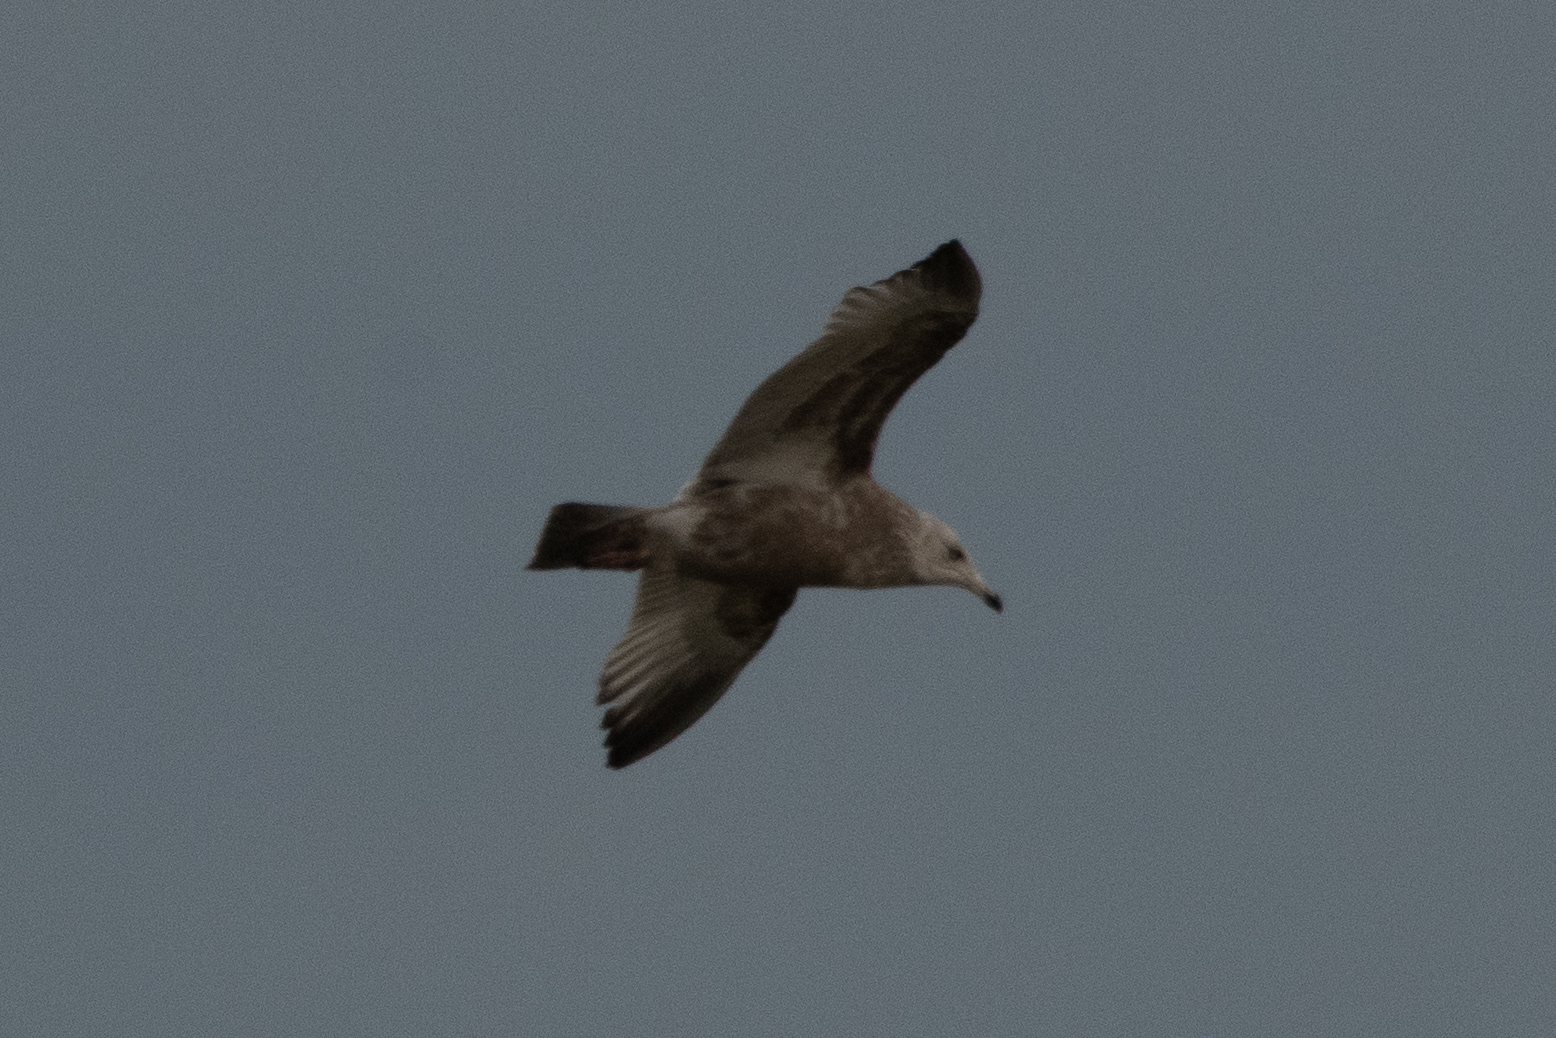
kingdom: Animalia
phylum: Chordata
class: Aves
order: Charadriiformes
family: Laridae
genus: Larus
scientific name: Larus argentatus
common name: Herring gull
